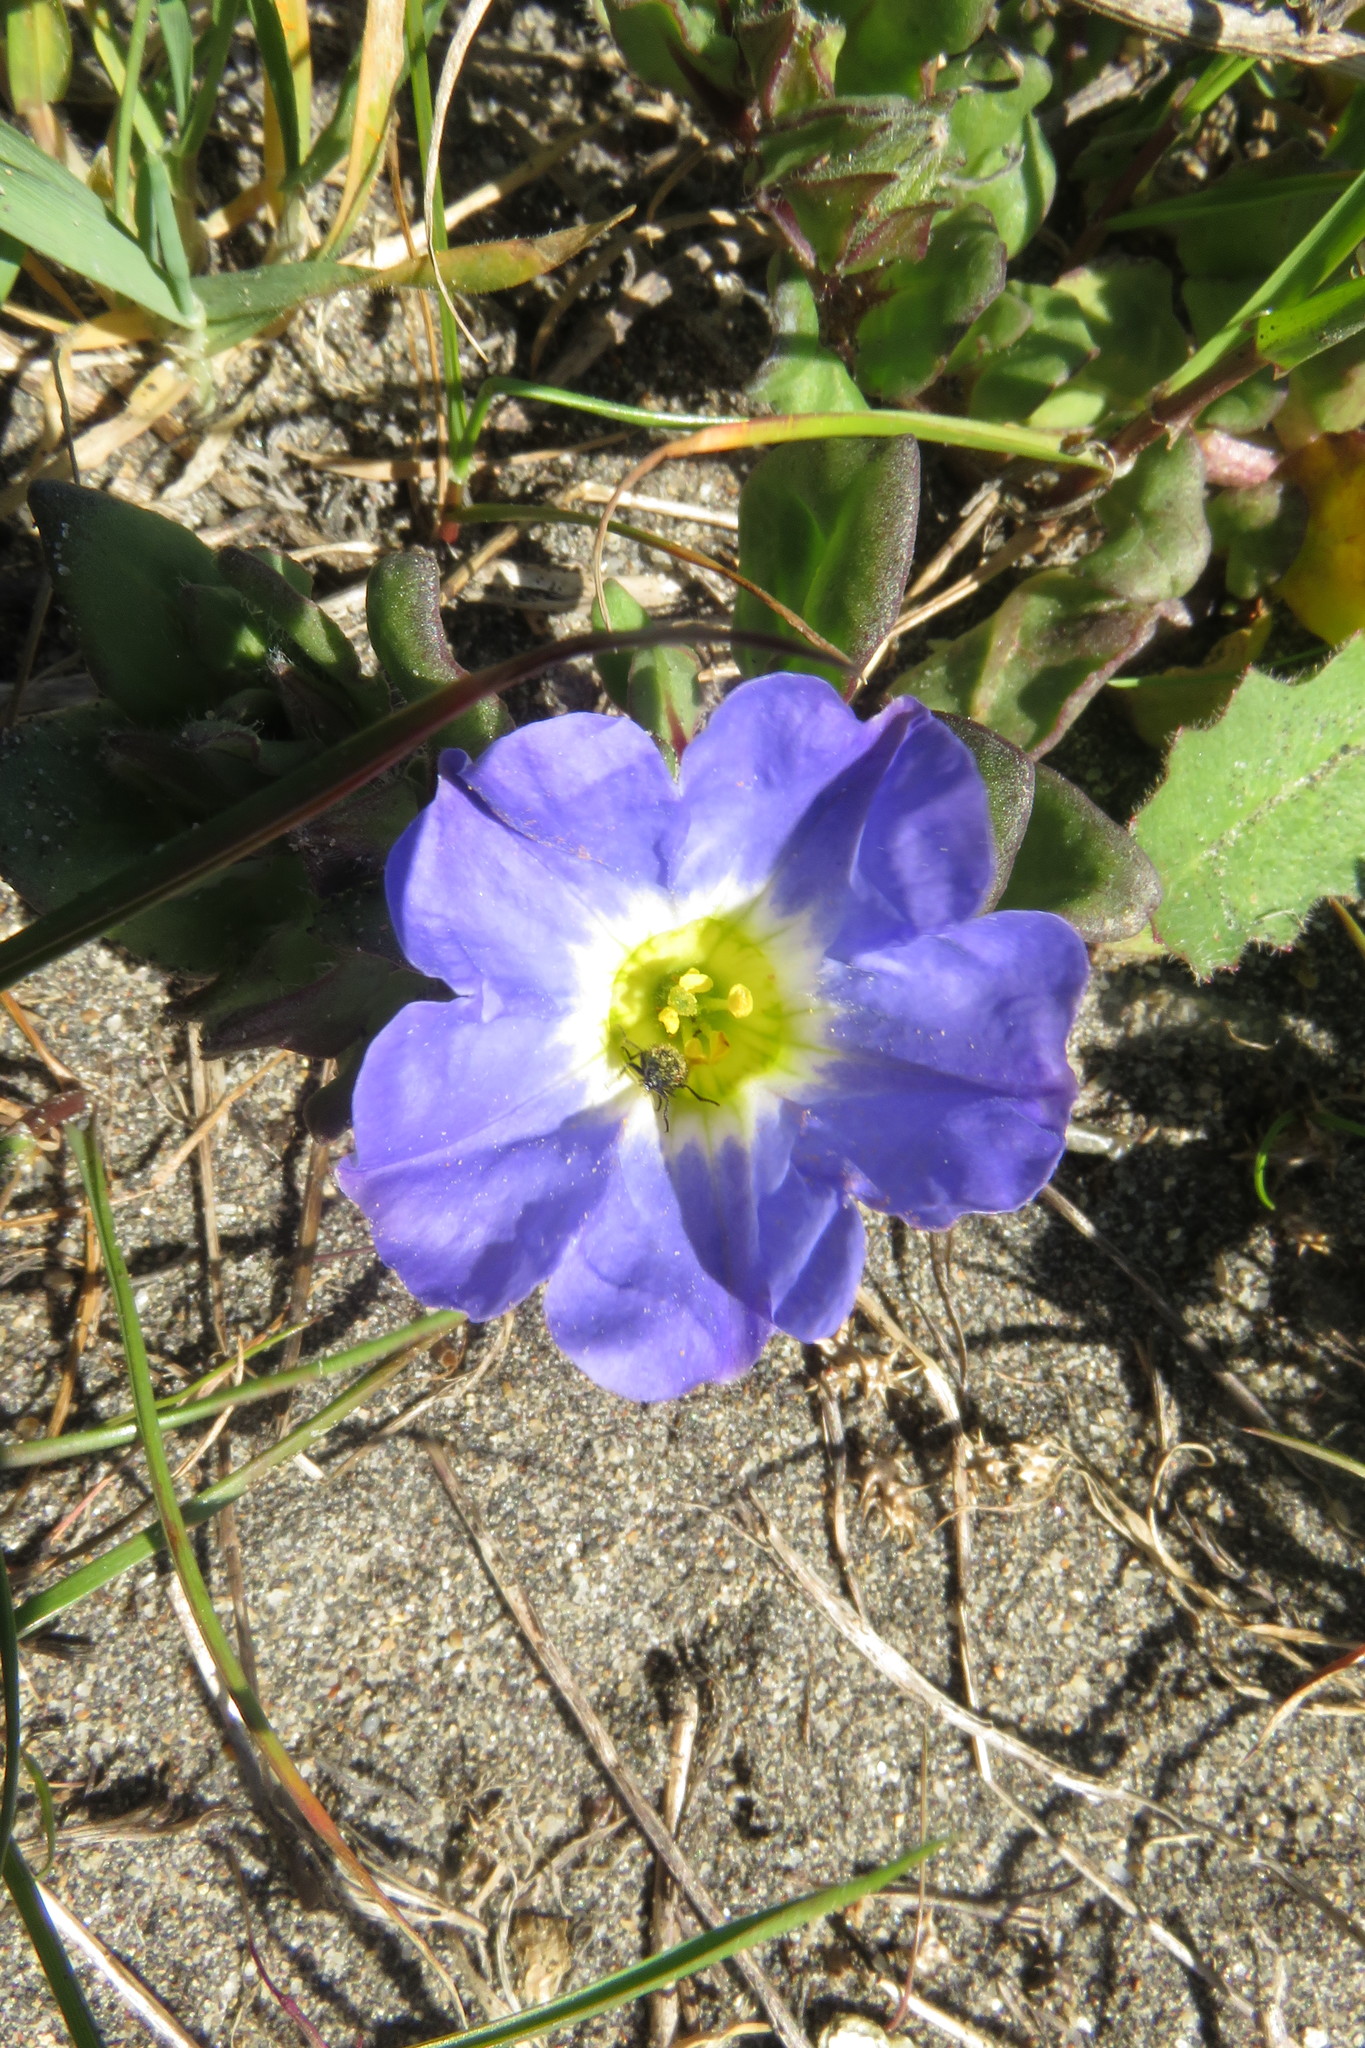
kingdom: Plantae
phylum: Tracheophyta
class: Magnoliopsida
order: Solanales
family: Solanaceae
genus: Nolana
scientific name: Nolana paradoxa
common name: Chilean-bellflower
